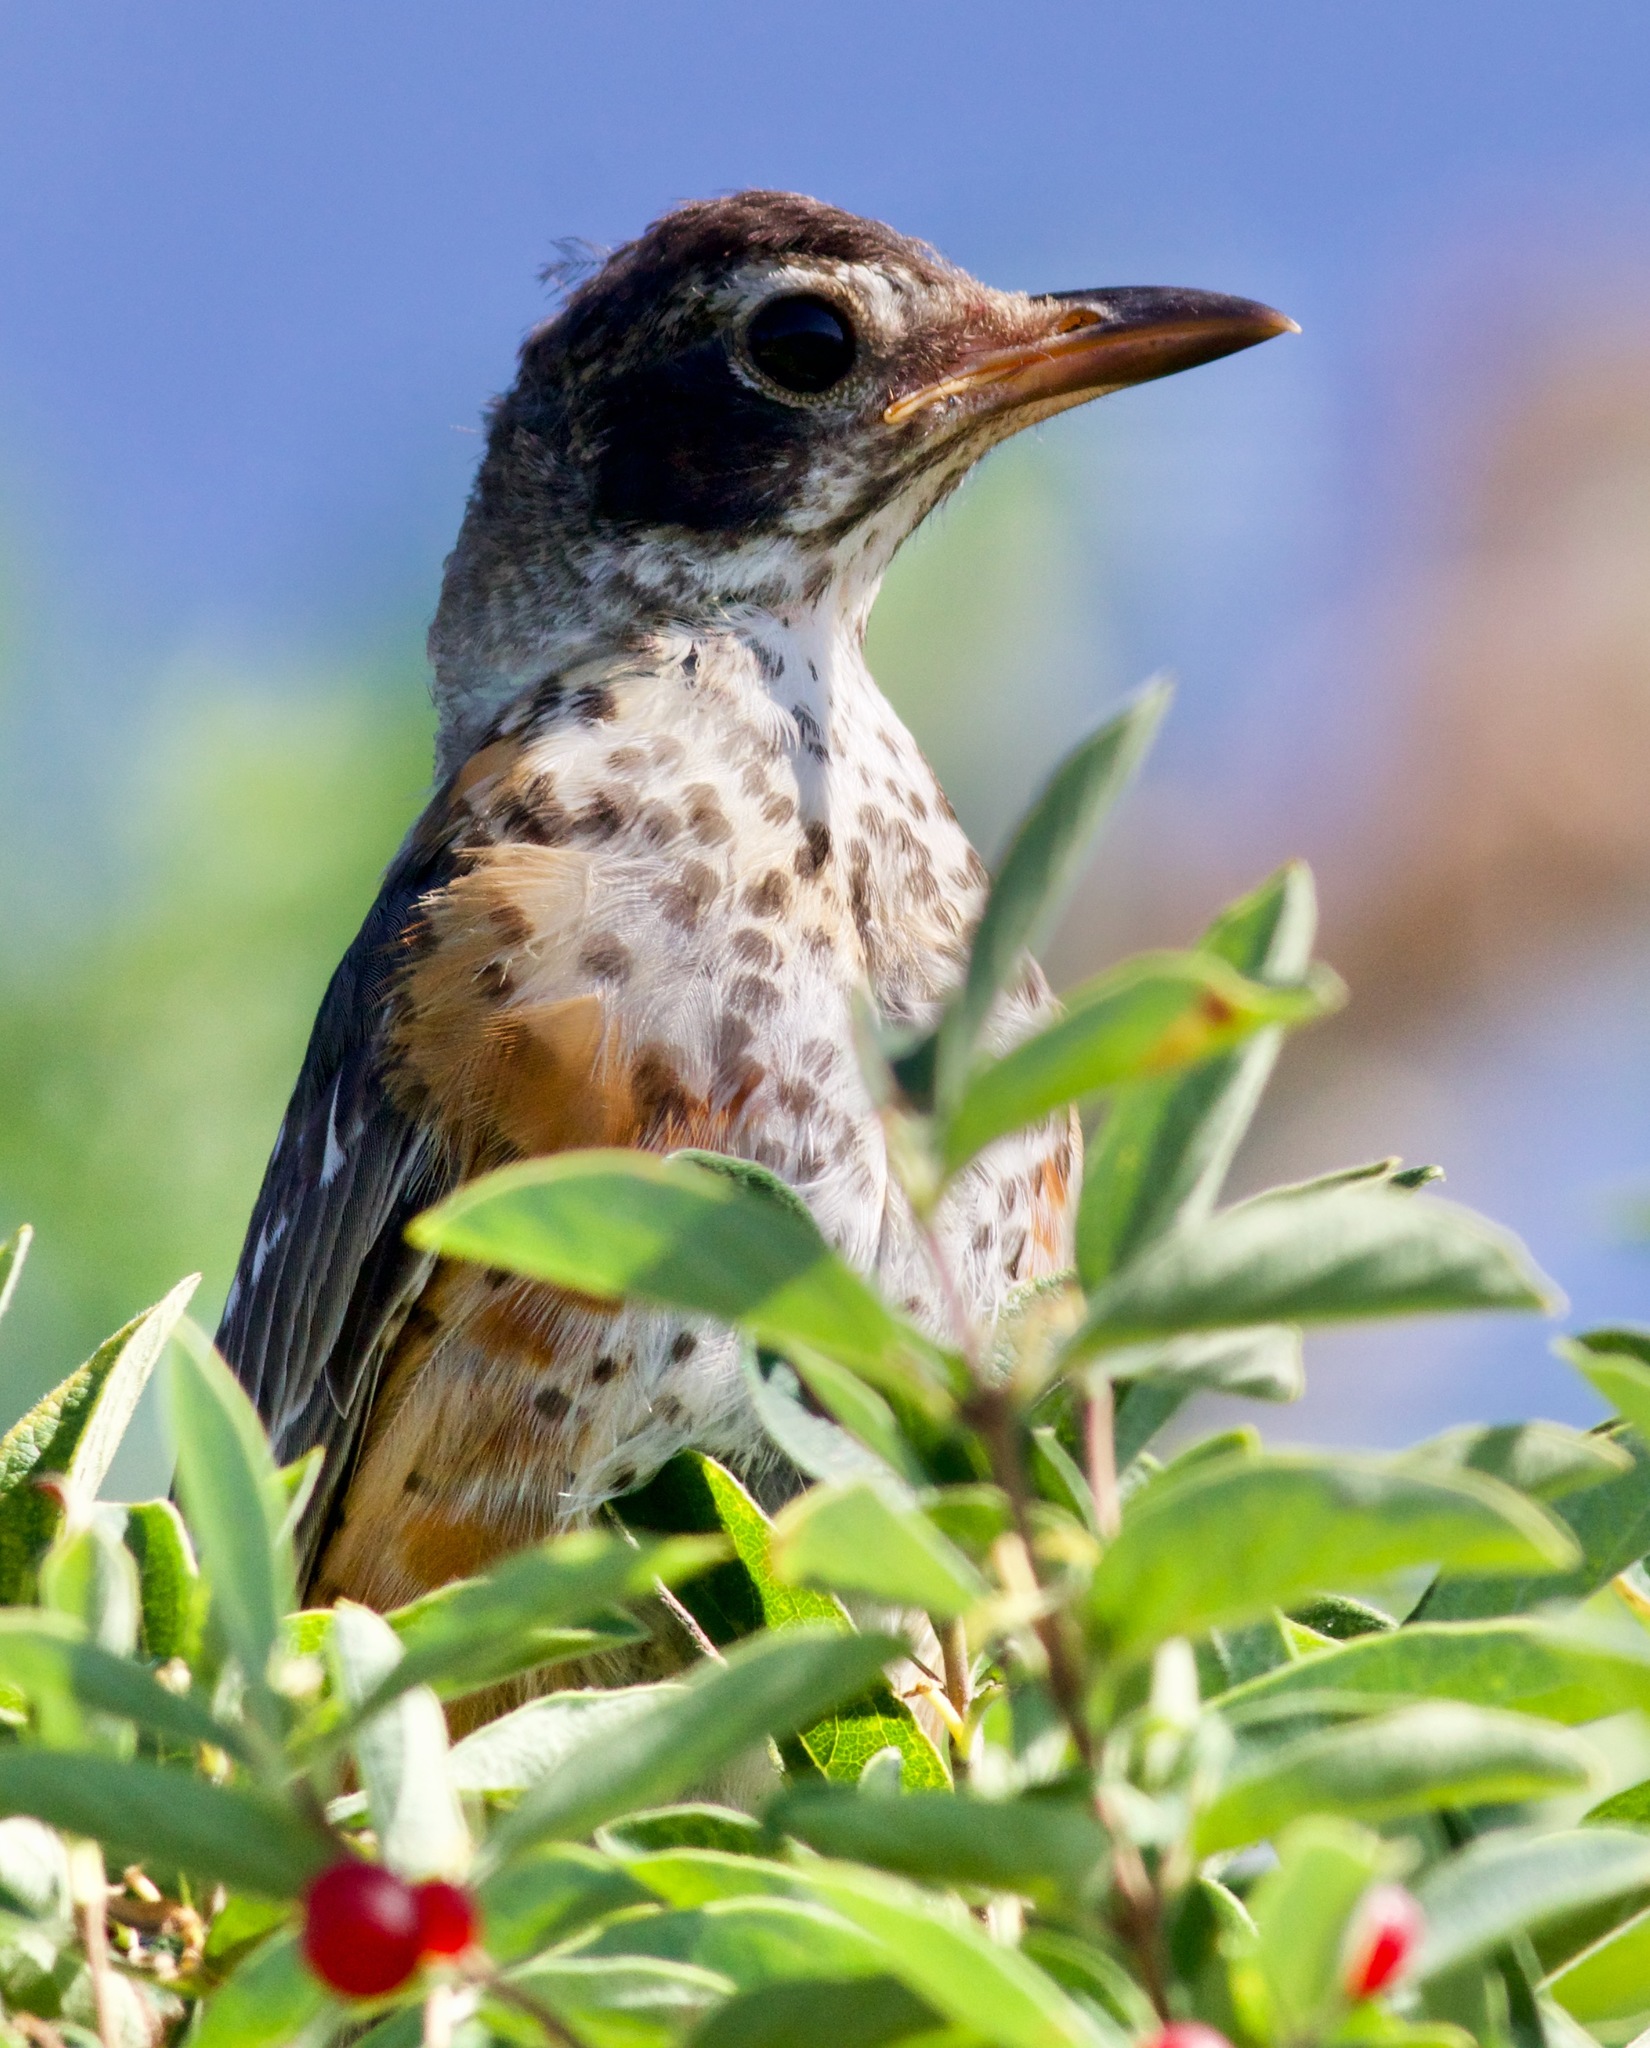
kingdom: Animalia
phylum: Chordata
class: Aves
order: Passeriformes
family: Turdidae
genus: Turdus
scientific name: Turdus migratorius
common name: American robin
